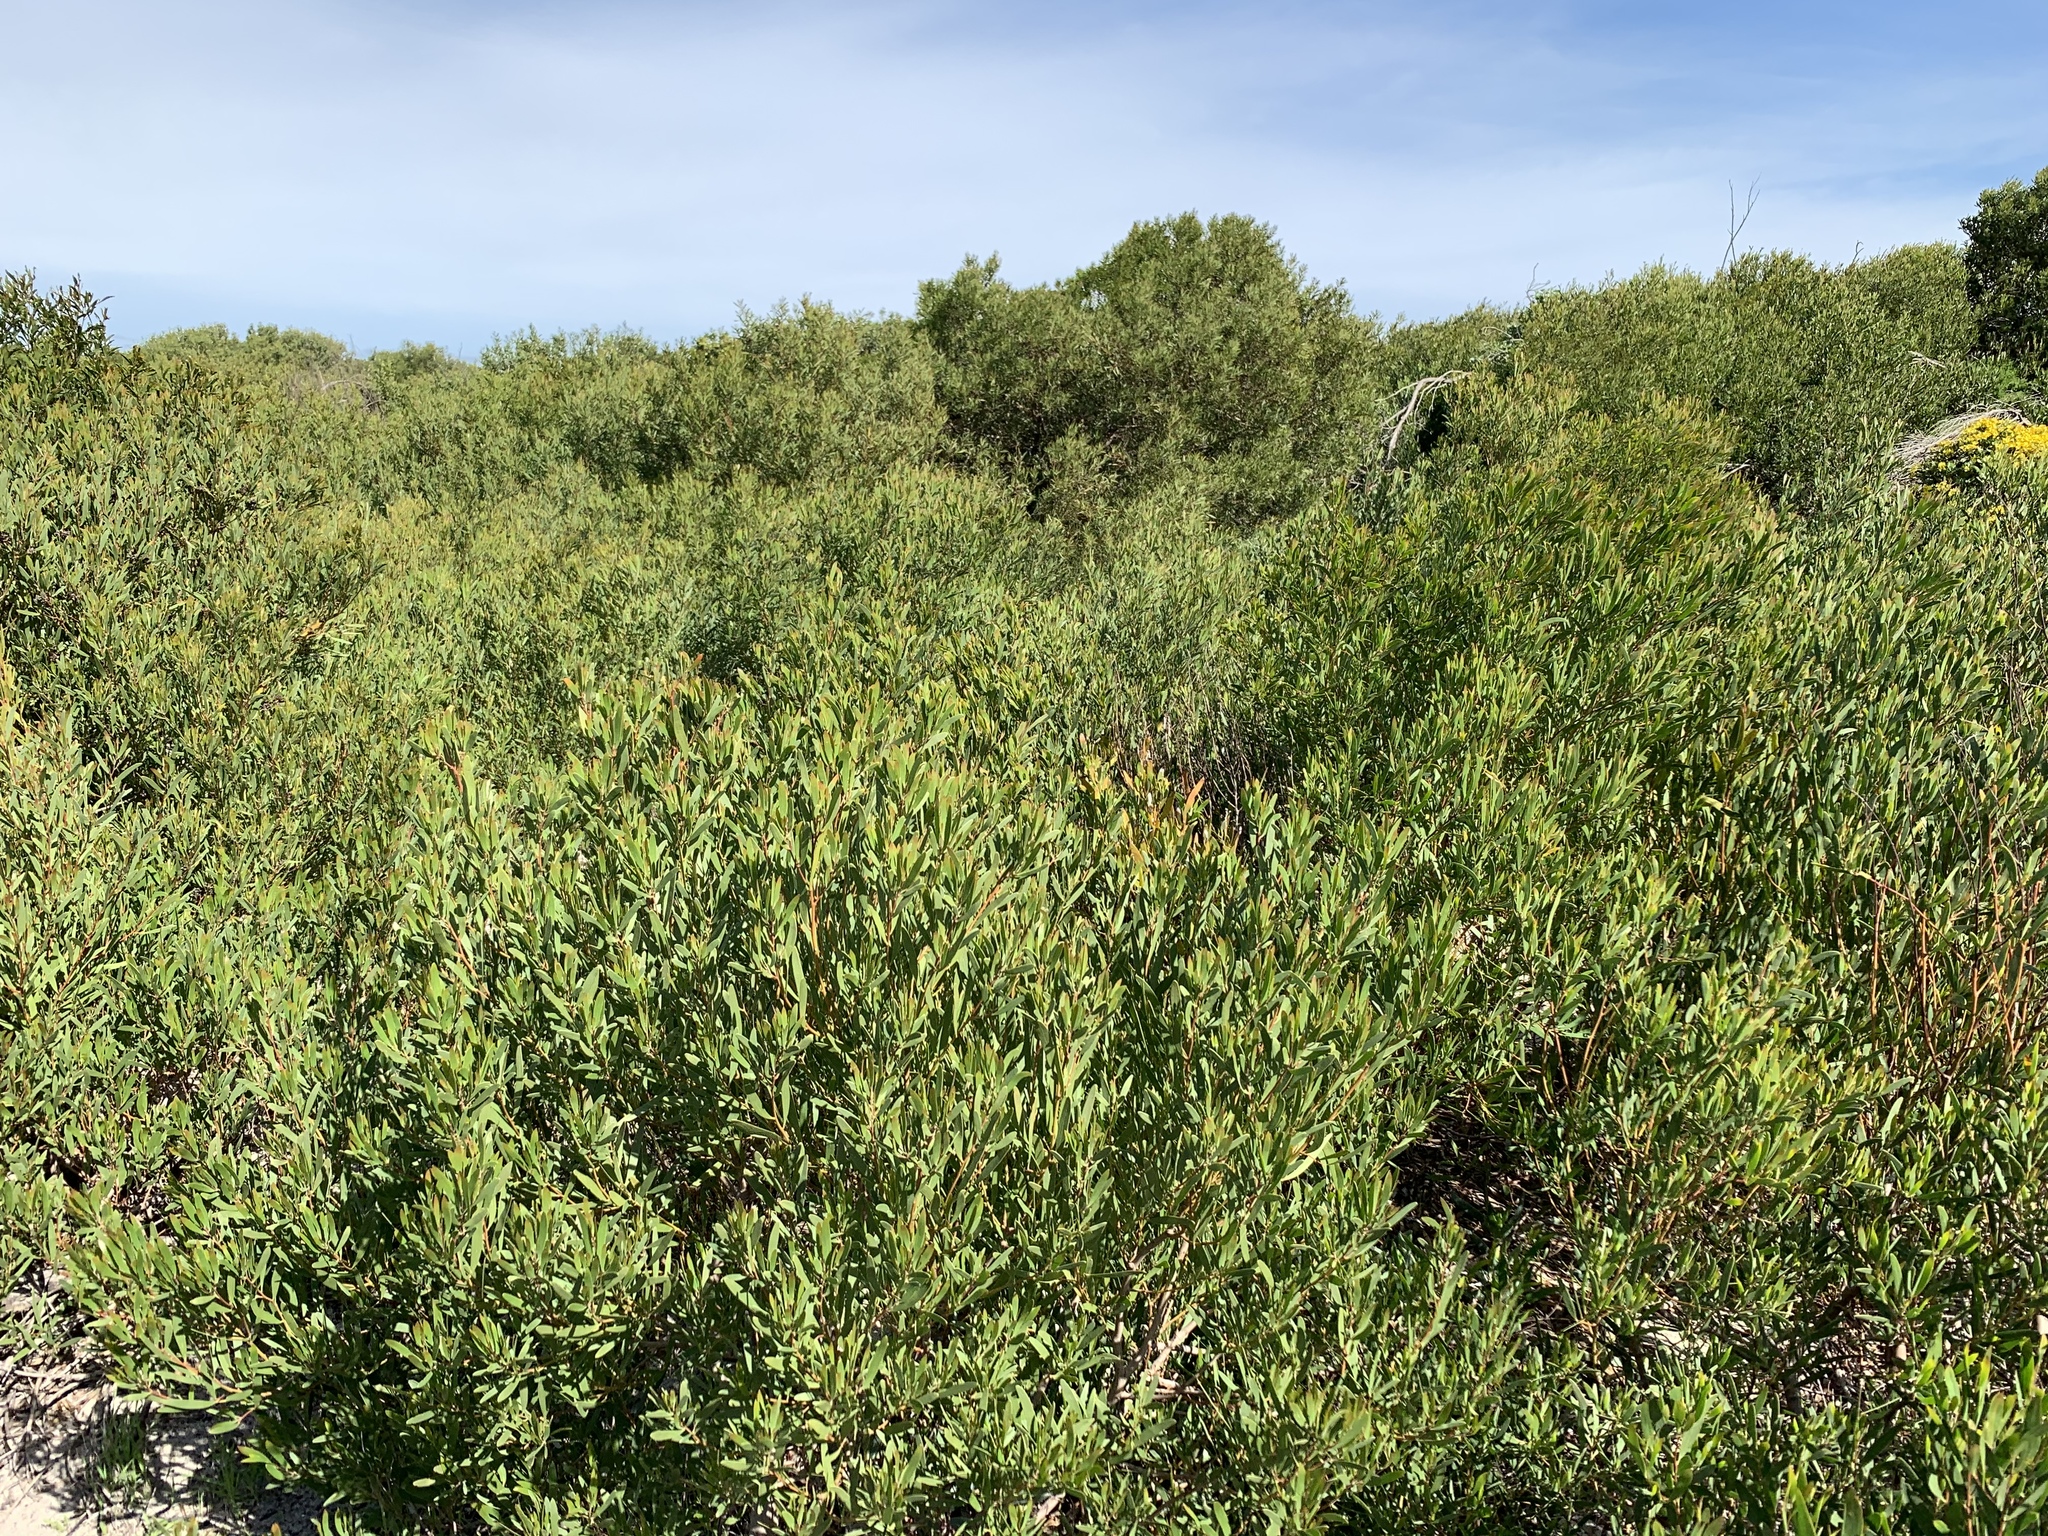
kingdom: Plantae
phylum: Tracheophyta
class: Magnoliopsida
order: Fabales
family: Fabaceae
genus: Acacia
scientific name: Acacia cyclops
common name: Coastal wattle
